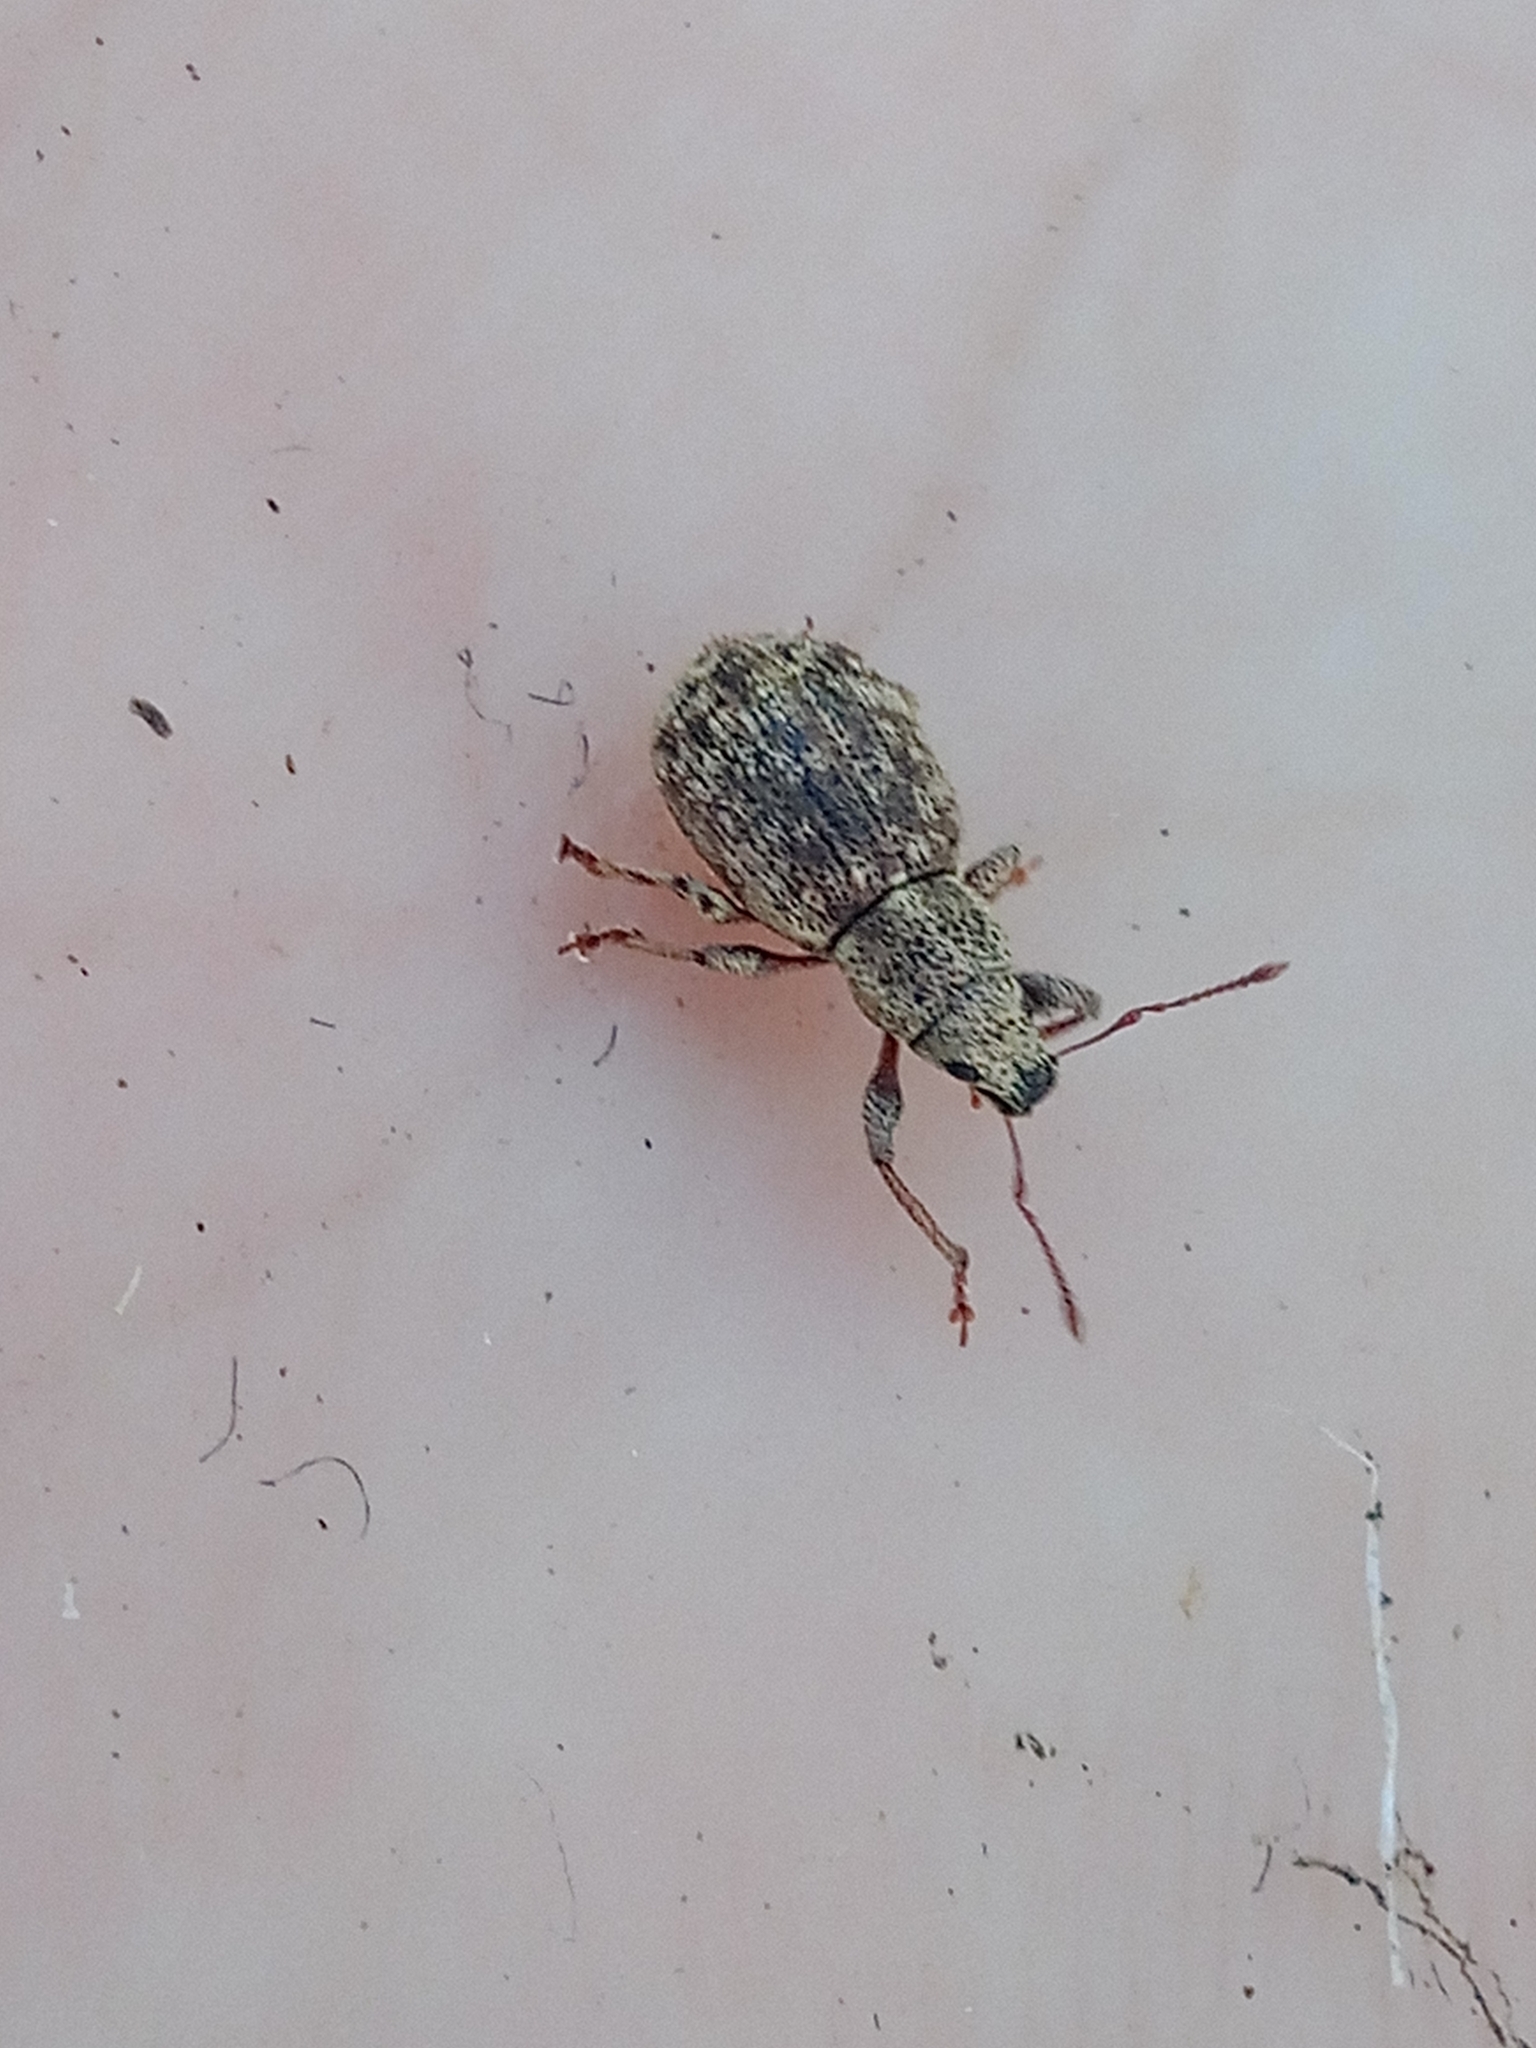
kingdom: Animalia
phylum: Arthropoda
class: Insecta
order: Coleoptera
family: Curculionidae
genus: Sciaphilus
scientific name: Sciaphilus asperatus
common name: Weevil
